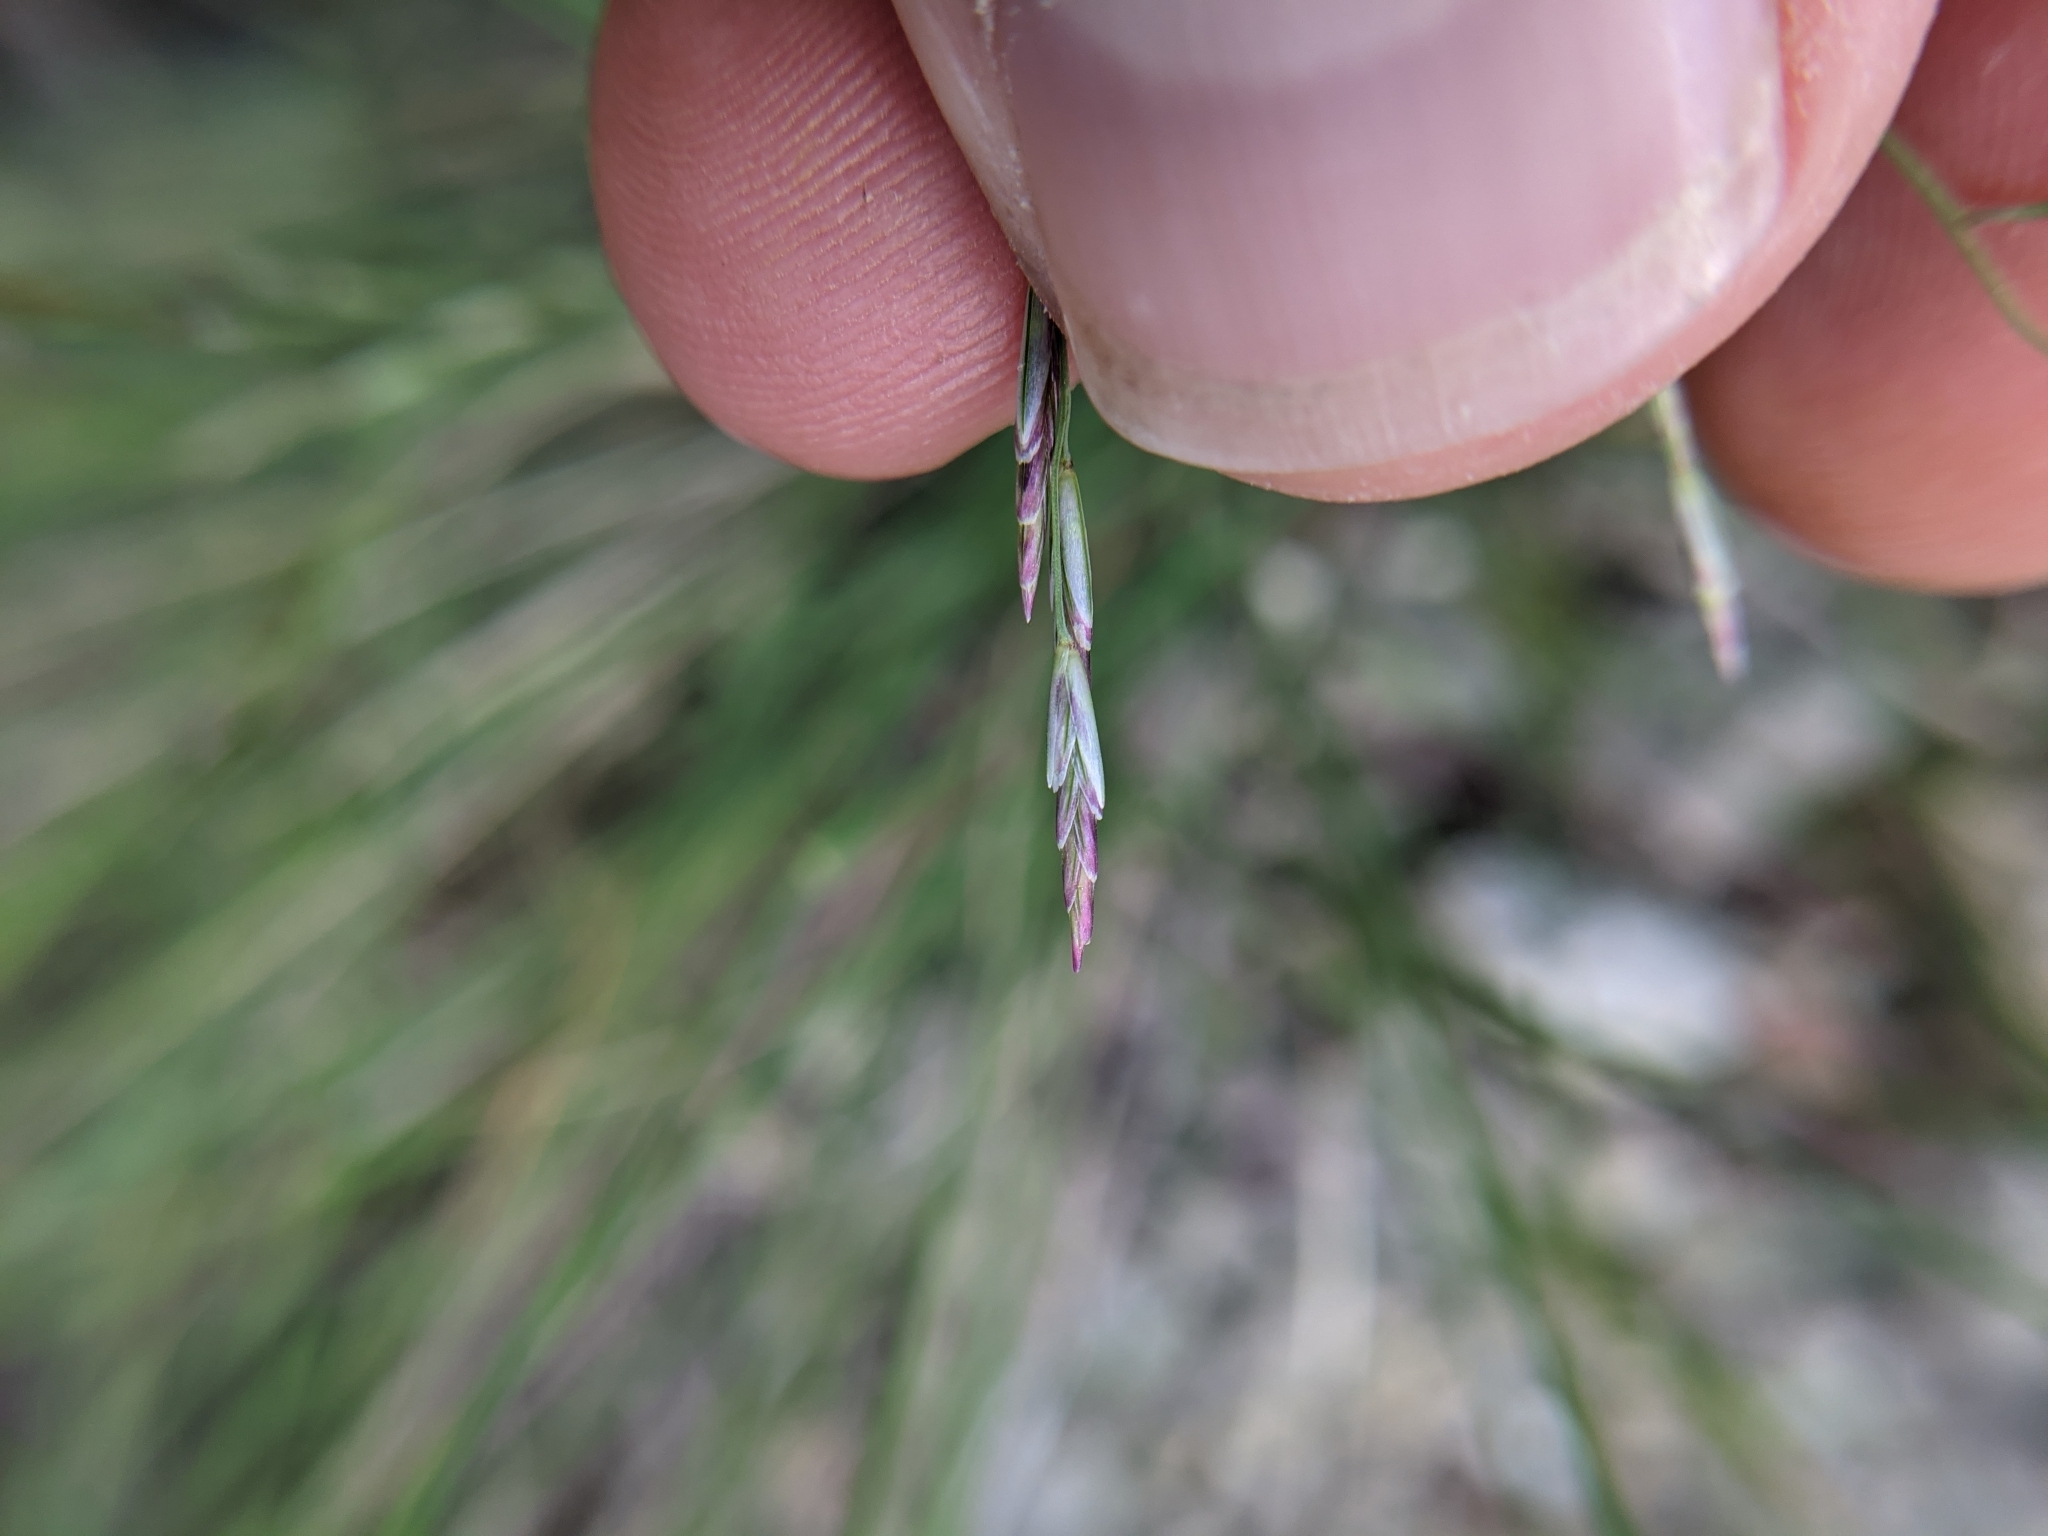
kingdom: Plantae
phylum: Tracheophyta
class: Liliopsida
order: Poales
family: Poaceae
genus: Tridentopsis
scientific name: Tridentopsis buckleyana
